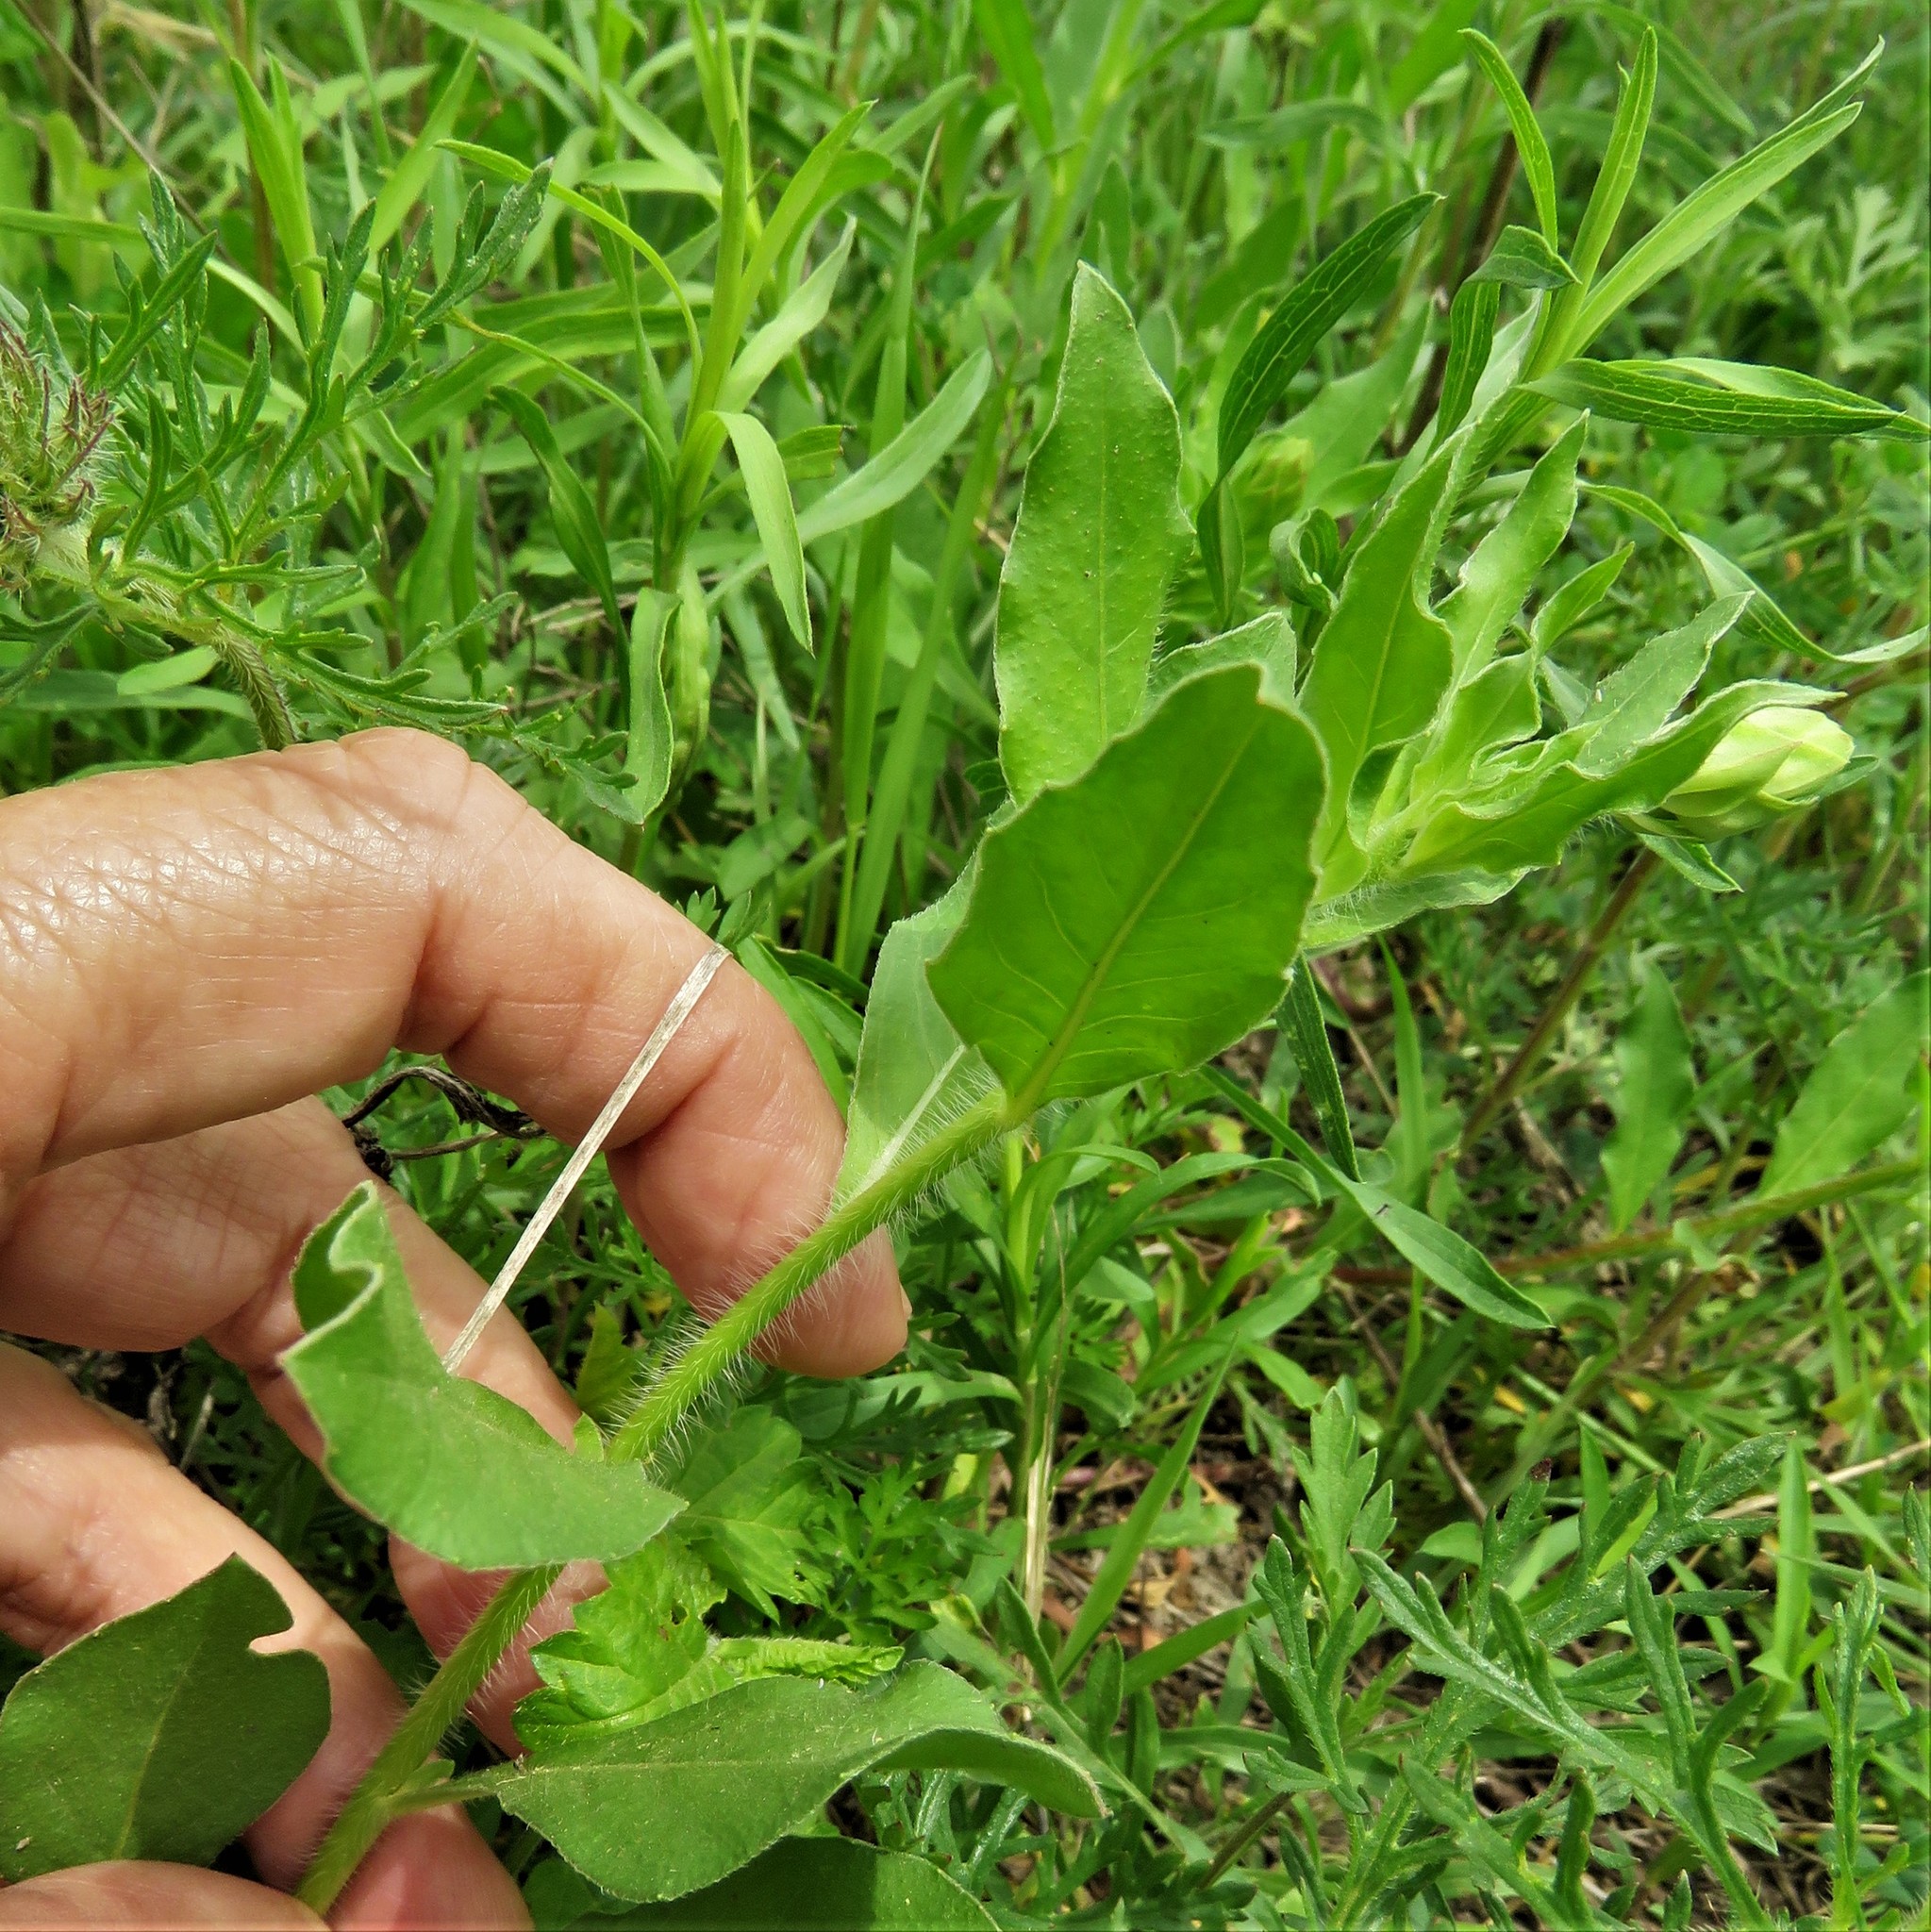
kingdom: Plantae
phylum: Tracheophyta
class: Magnoliopsida
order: Myrtales
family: Onagraceae
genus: Oenothera
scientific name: Oenothera suffulta
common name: Kisses
